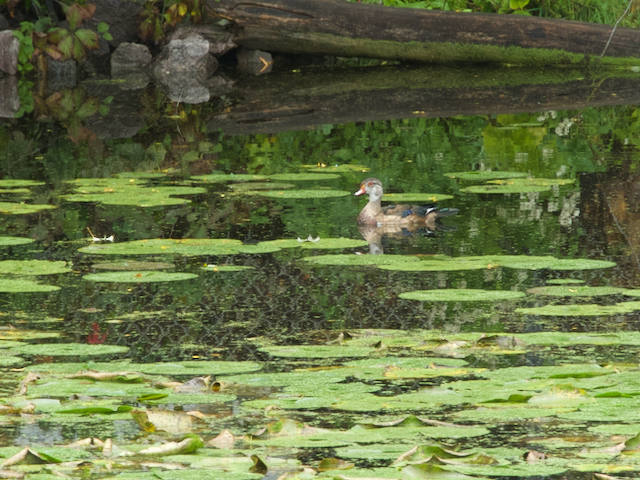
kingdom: Animalia
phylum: Chordata
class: Aves
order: Anseriformes
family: Anatidae
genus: Aix
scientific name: Aix sponsa
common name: Wood duck
